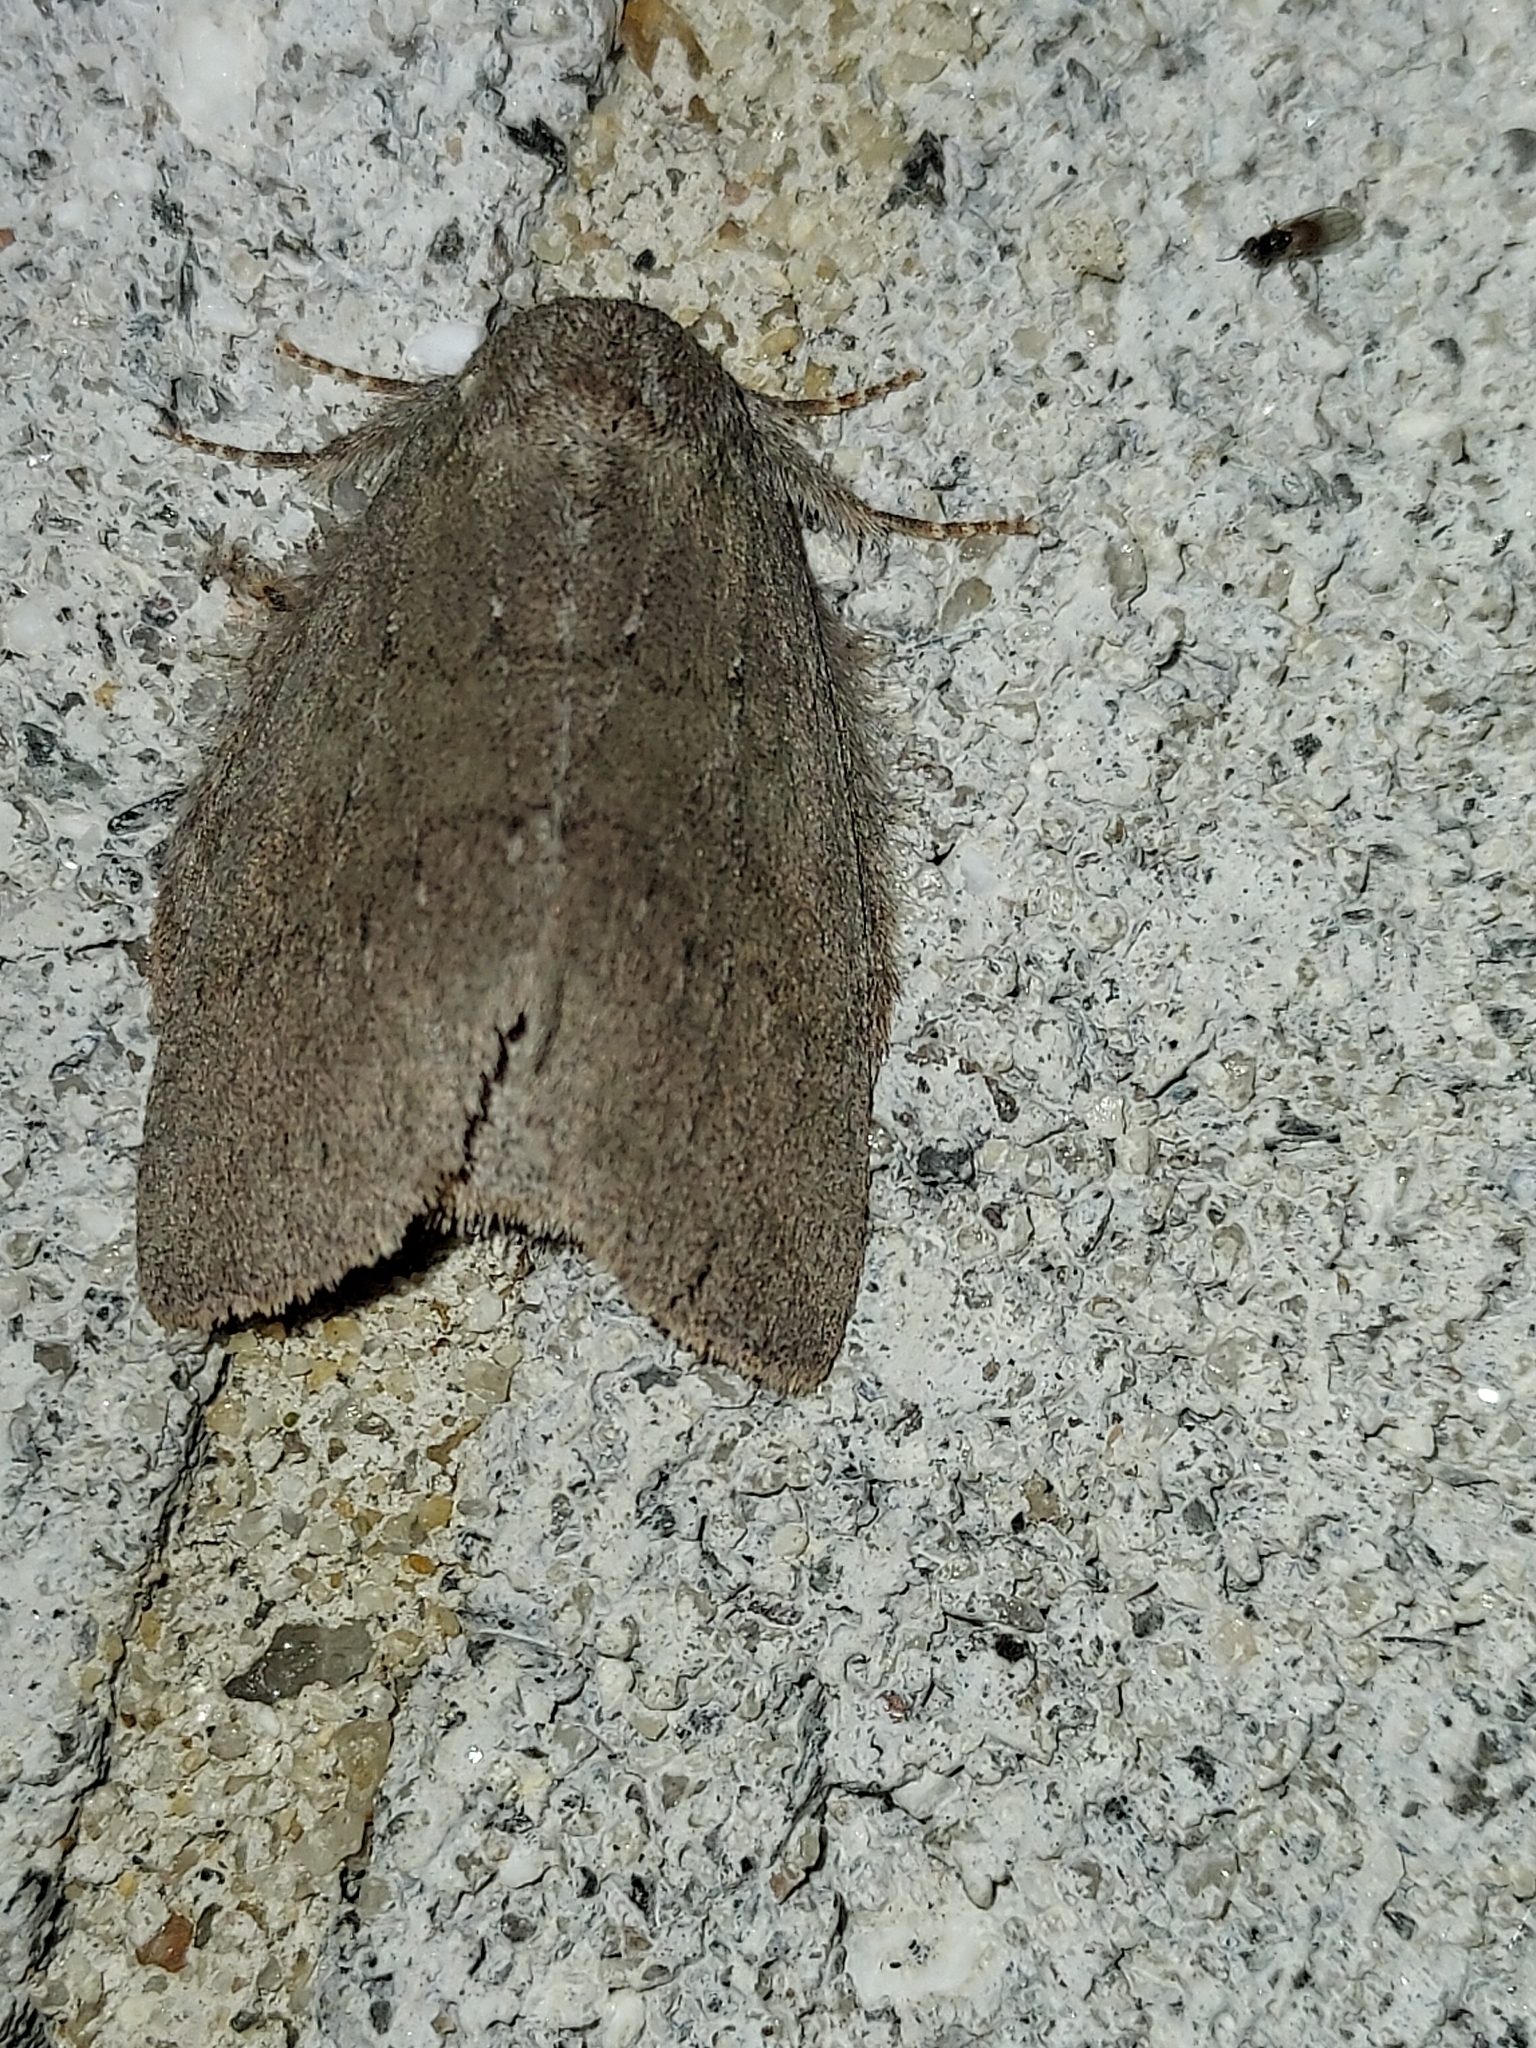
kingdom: Animalia
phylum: Arthropoda
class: Insecta
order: Lepidoptera
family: Notodontidae
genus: Misogada
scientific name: Misogada unicolor
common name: Drab prominent
